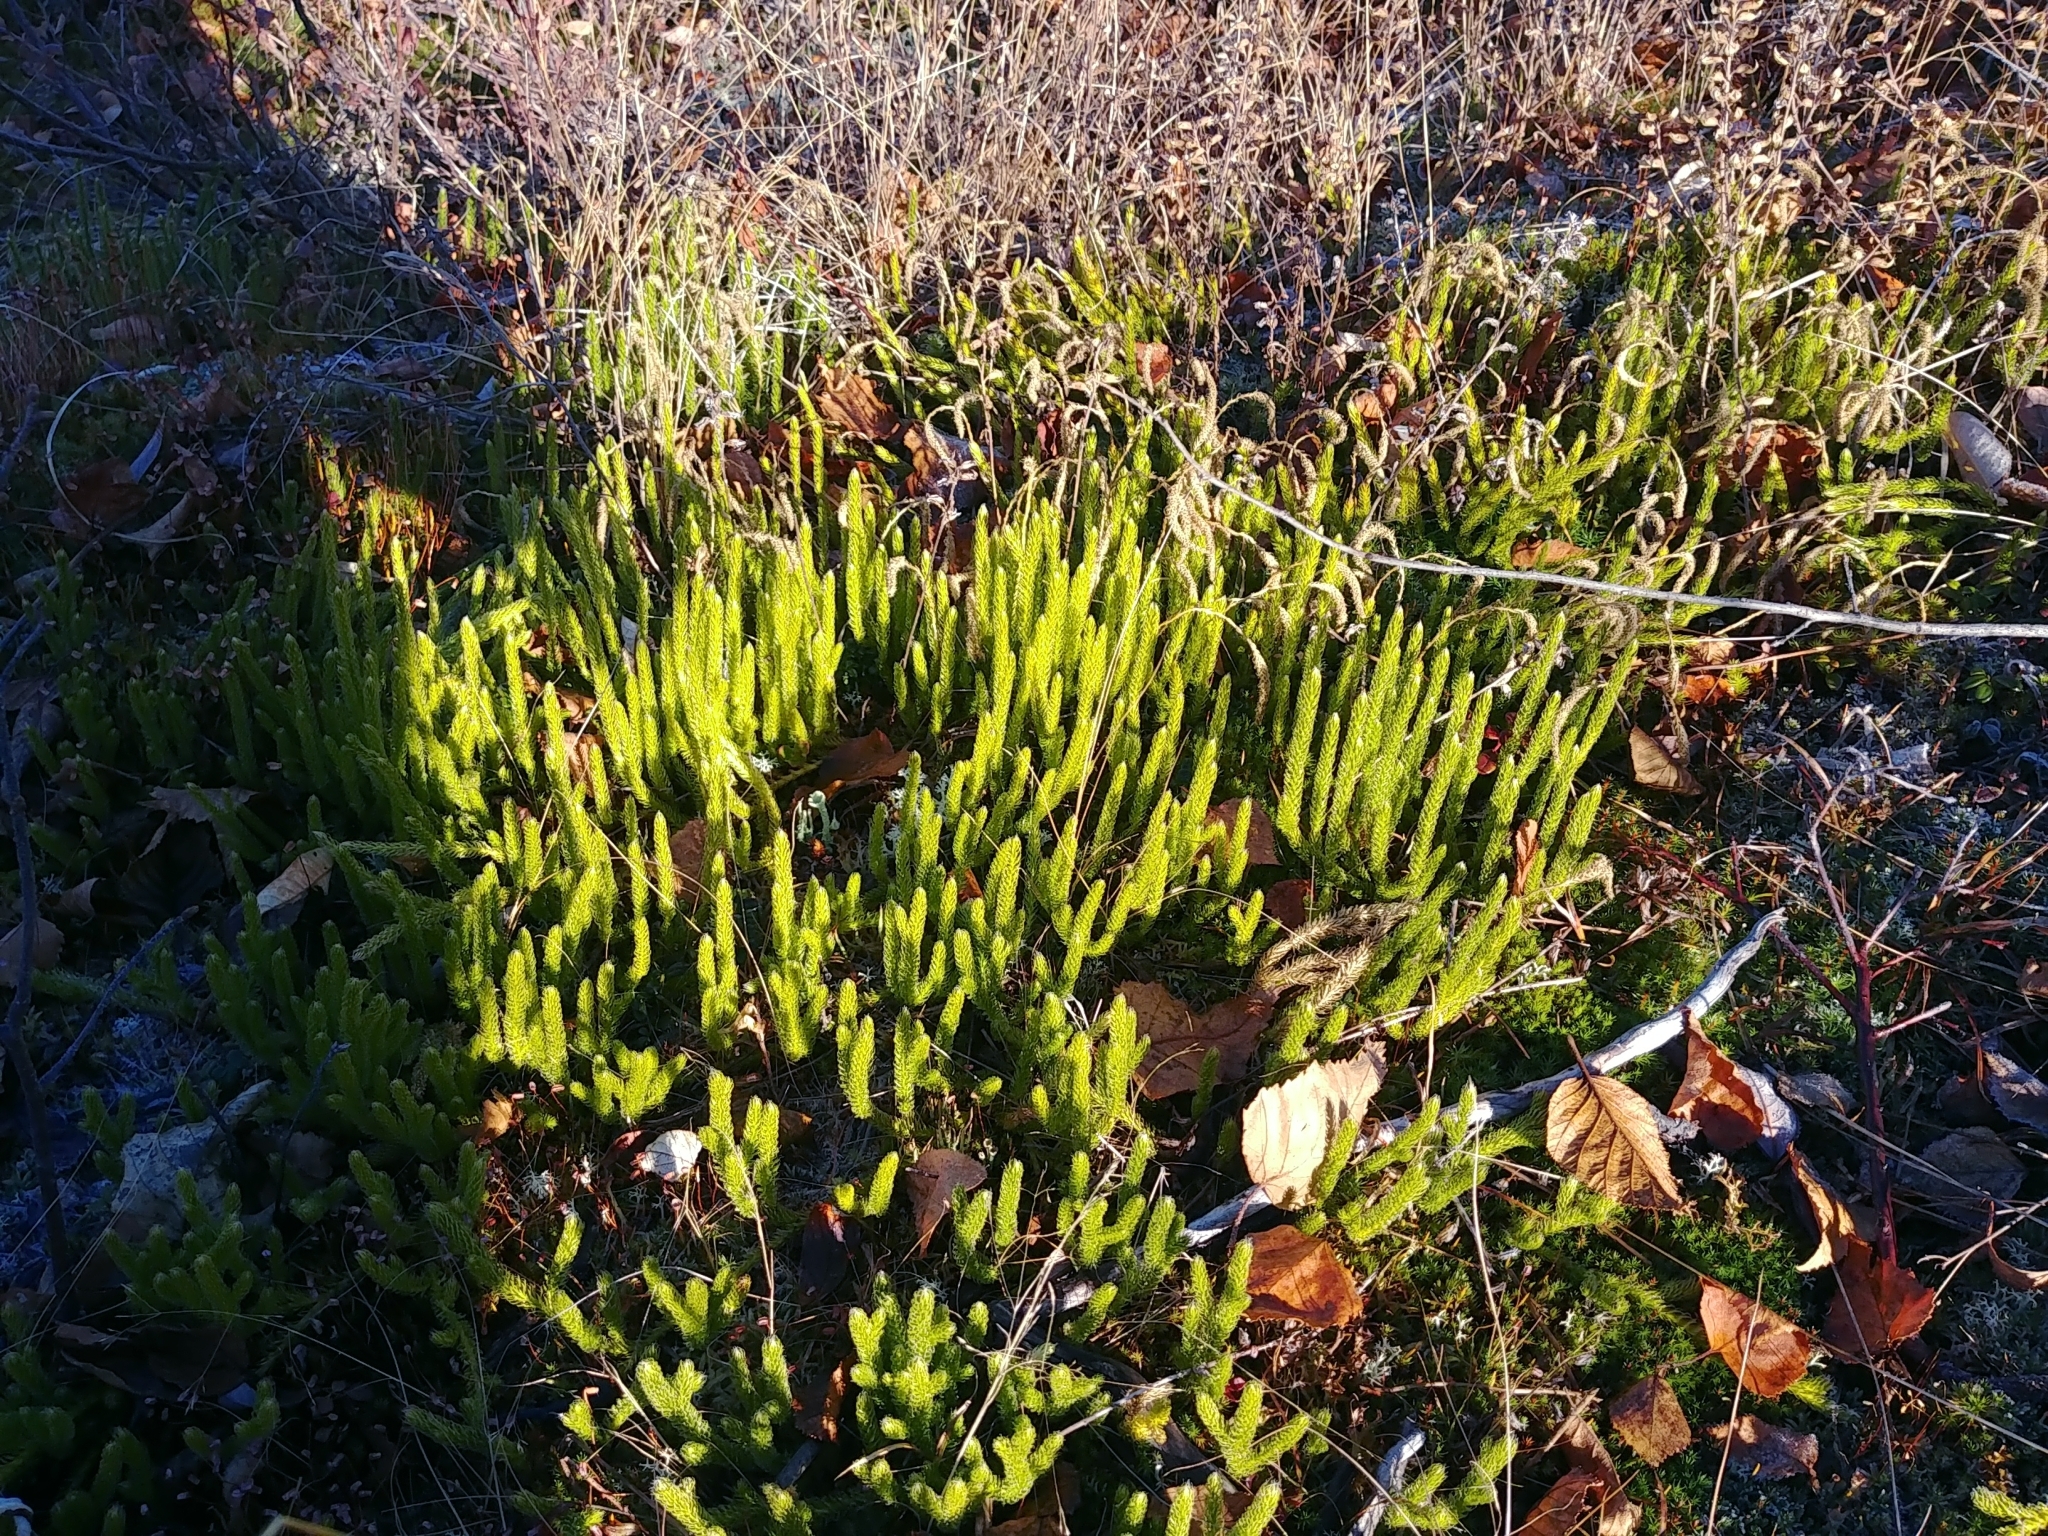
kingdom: Plantae
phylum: Tracheophyta
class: Lycopodiopsida
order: Lycopodiales
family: Lycopodiaceae
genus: Lycopodium
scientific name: Lycopodium lagopus
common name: One-cone clubmoss
